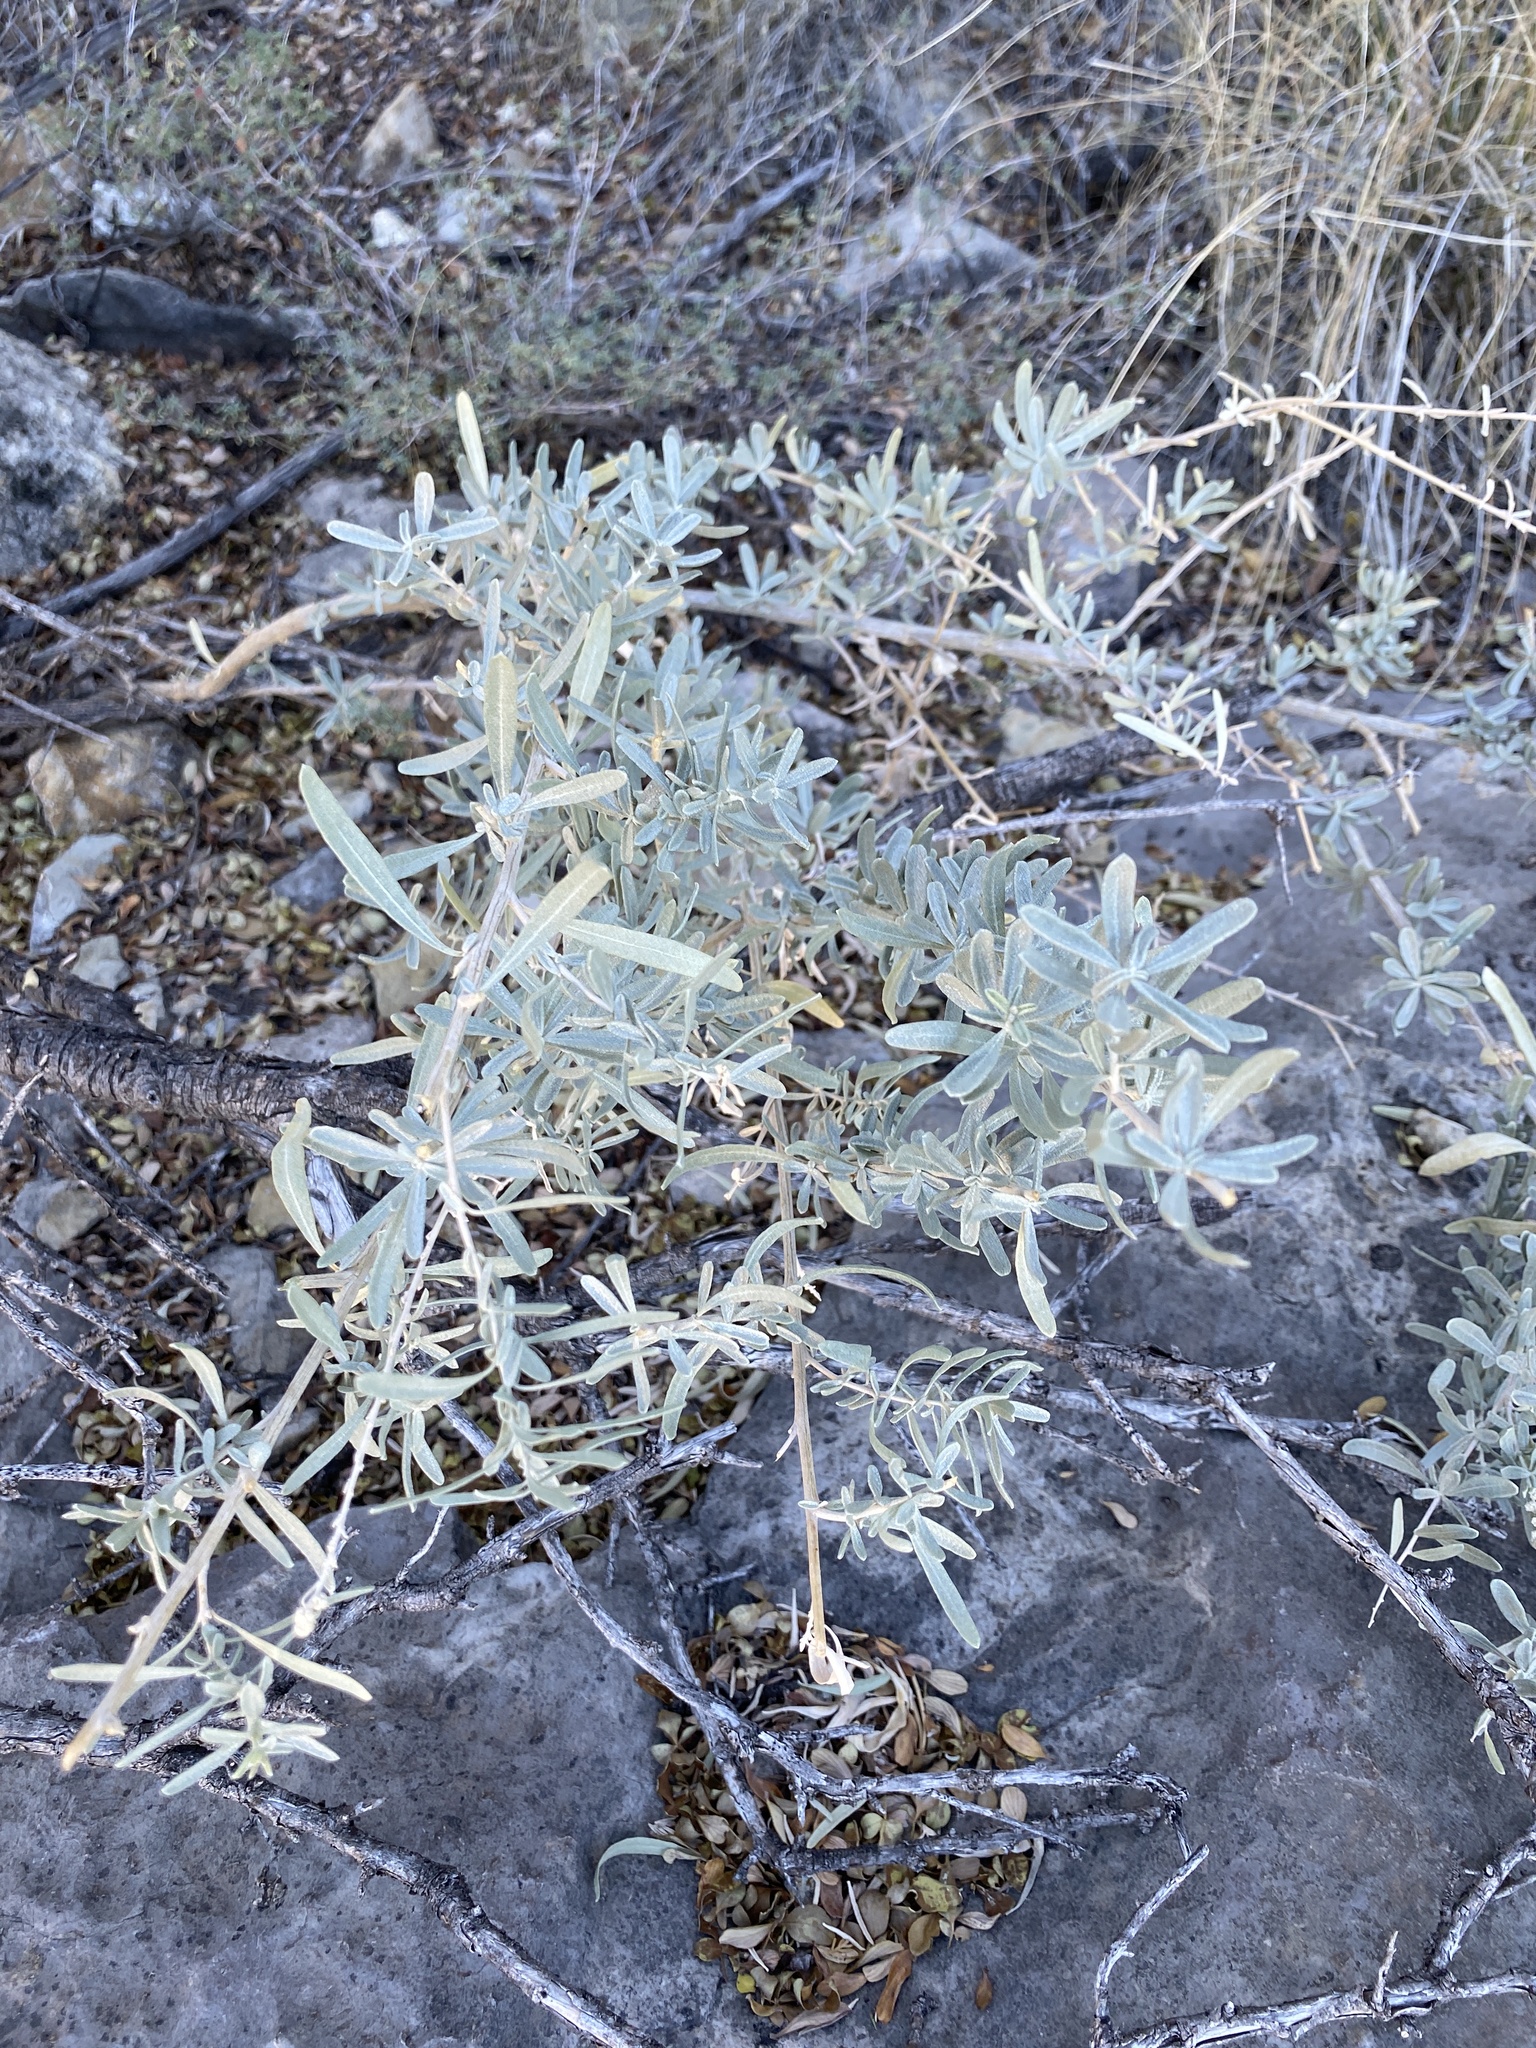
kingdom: Plantae
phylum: Tracheophyta
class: Magnoliopsida
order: Caryophyllales
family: Amaranthaceae
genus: Atriplex
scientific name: Atriplex canescens
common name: Four-wing saltbush
